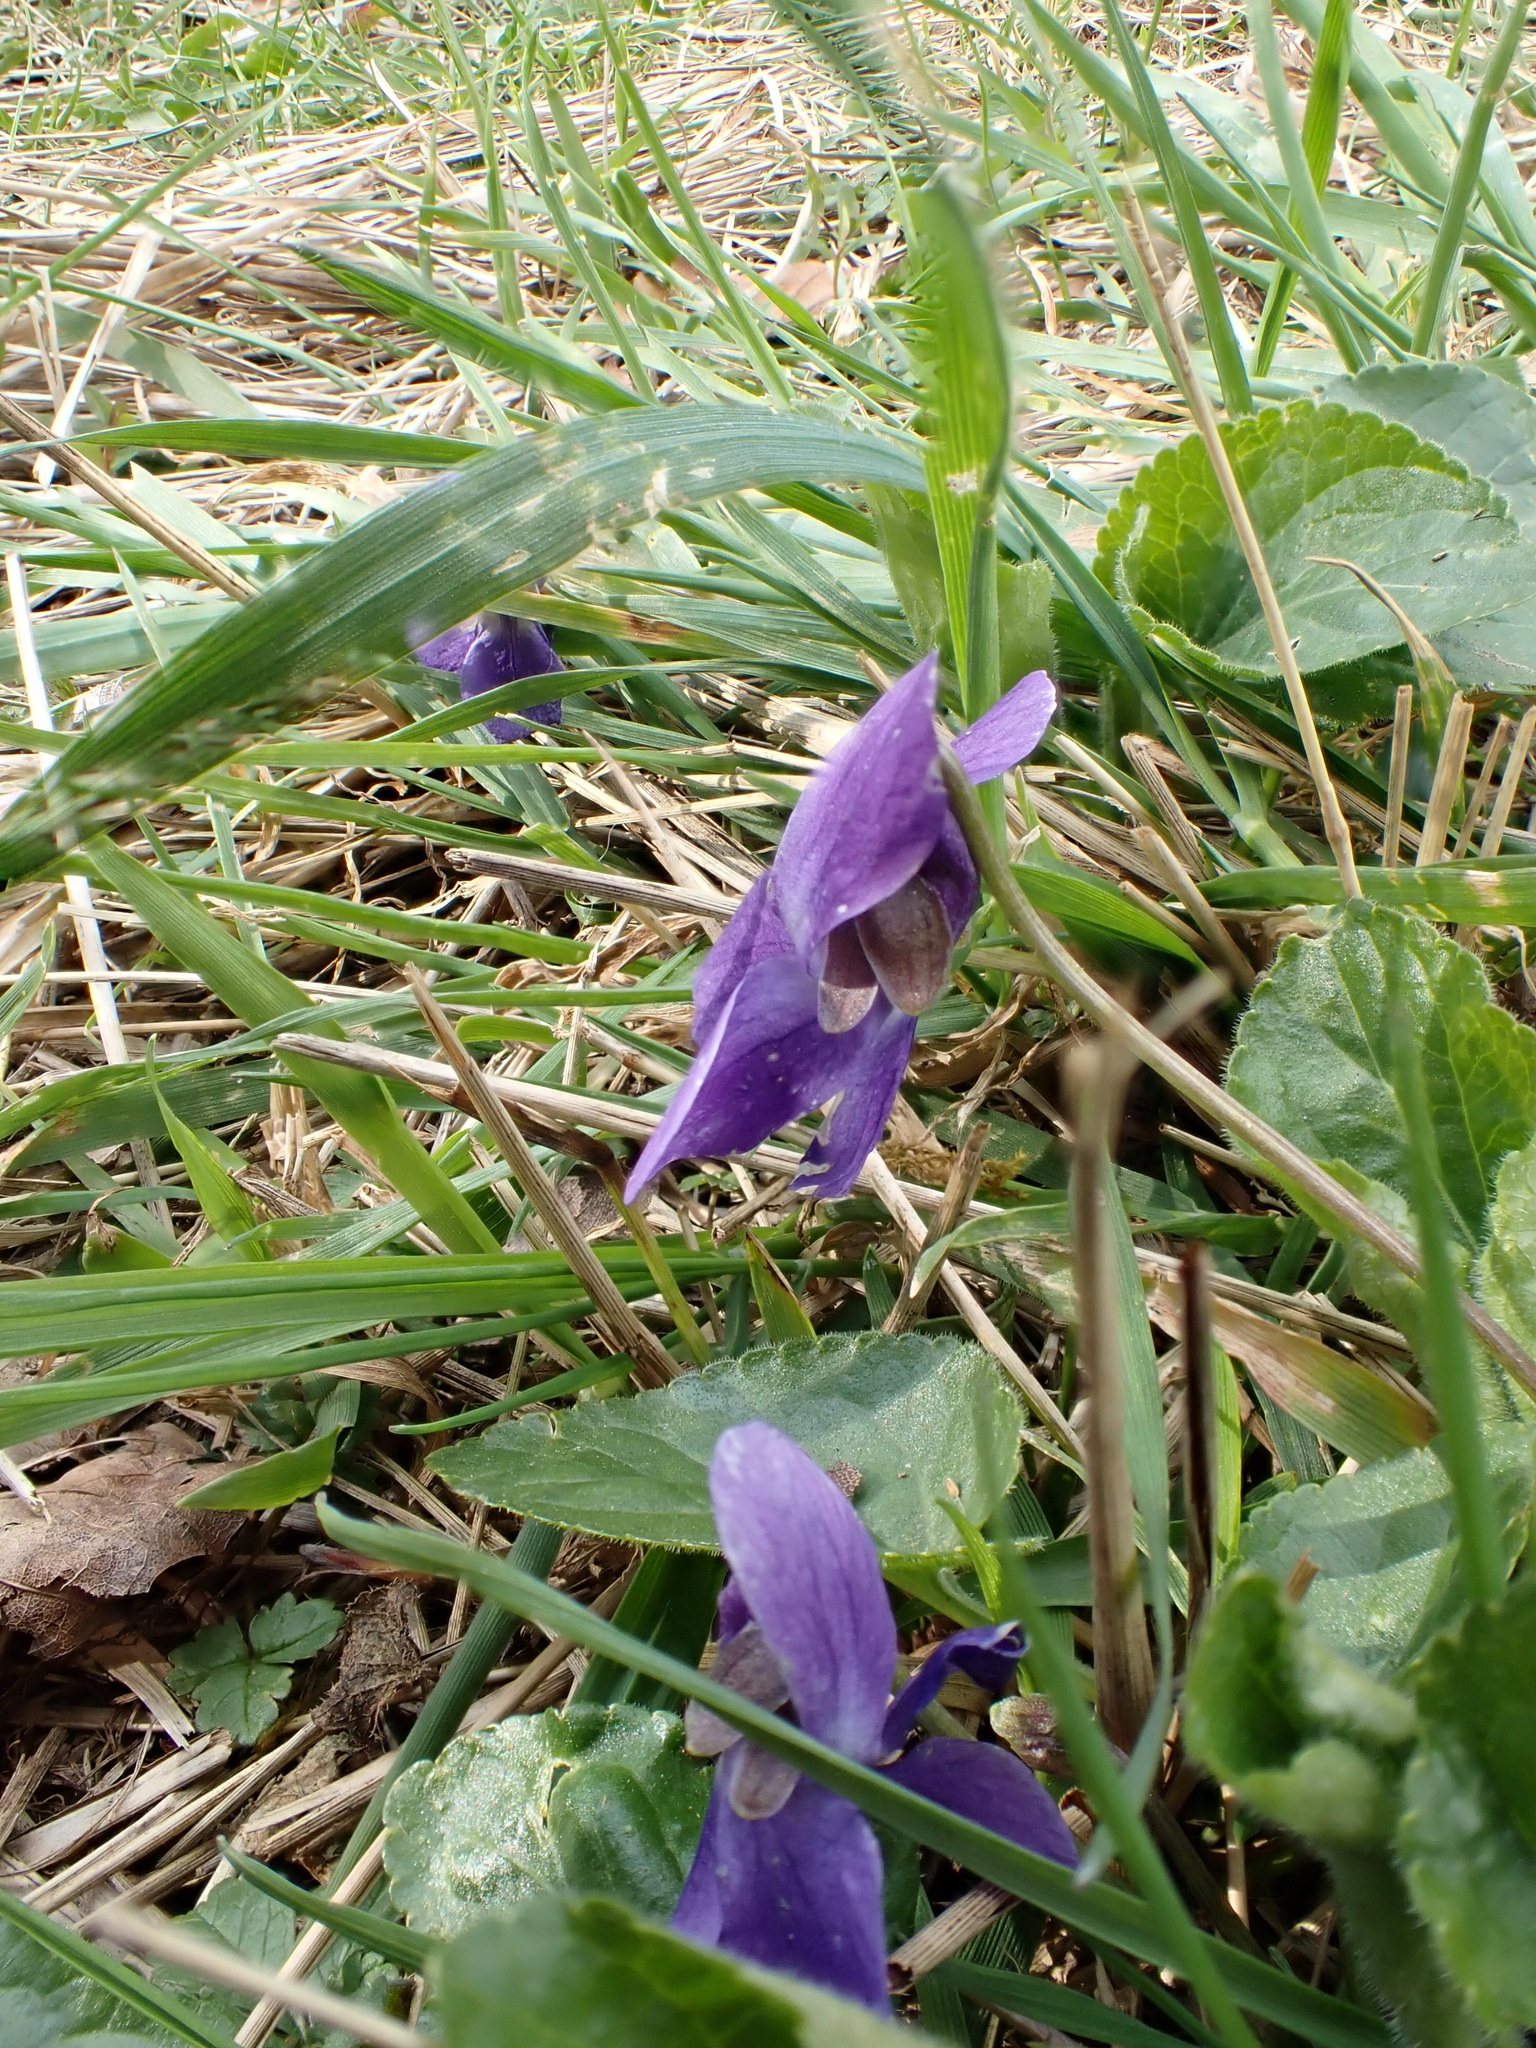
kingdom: Plantae
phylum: Tracheophyta
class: Magnoliopsida
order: Malpighiales
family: Violaceae
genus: Viola
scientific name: Viola odorata
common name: Sweet violet
